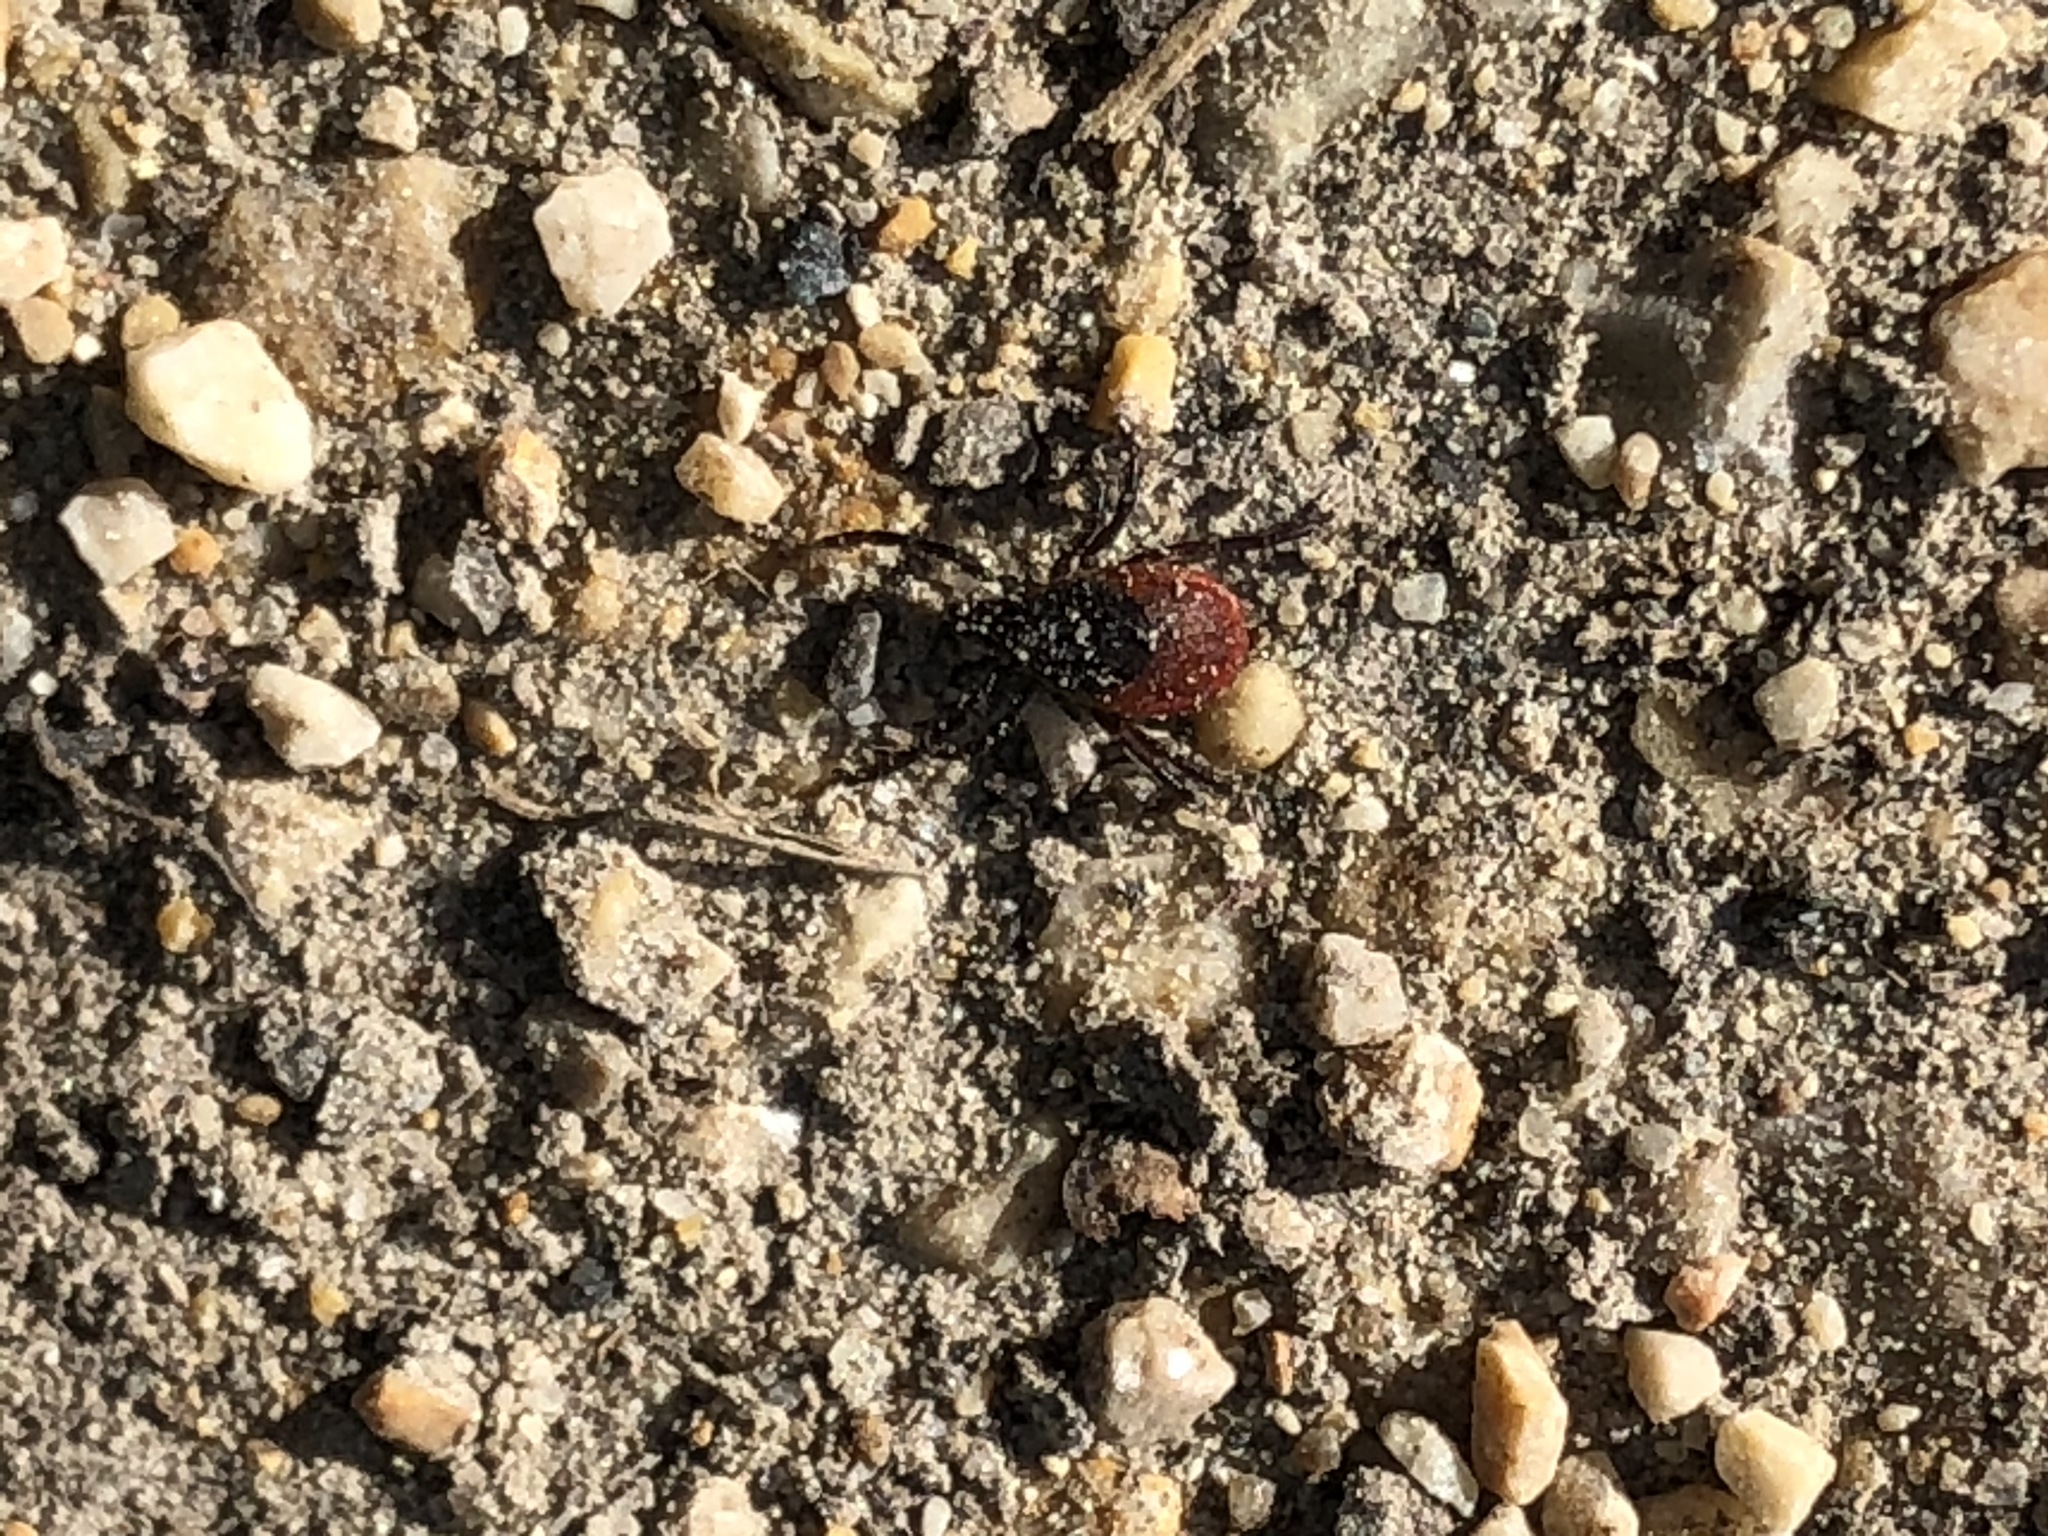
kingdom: Animalia
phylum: Arthropoda
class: Arachnida
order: Ixodida
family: Ixodidae
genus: Ixodes
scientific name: Ixodes ricinus
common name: Castor bean tick
